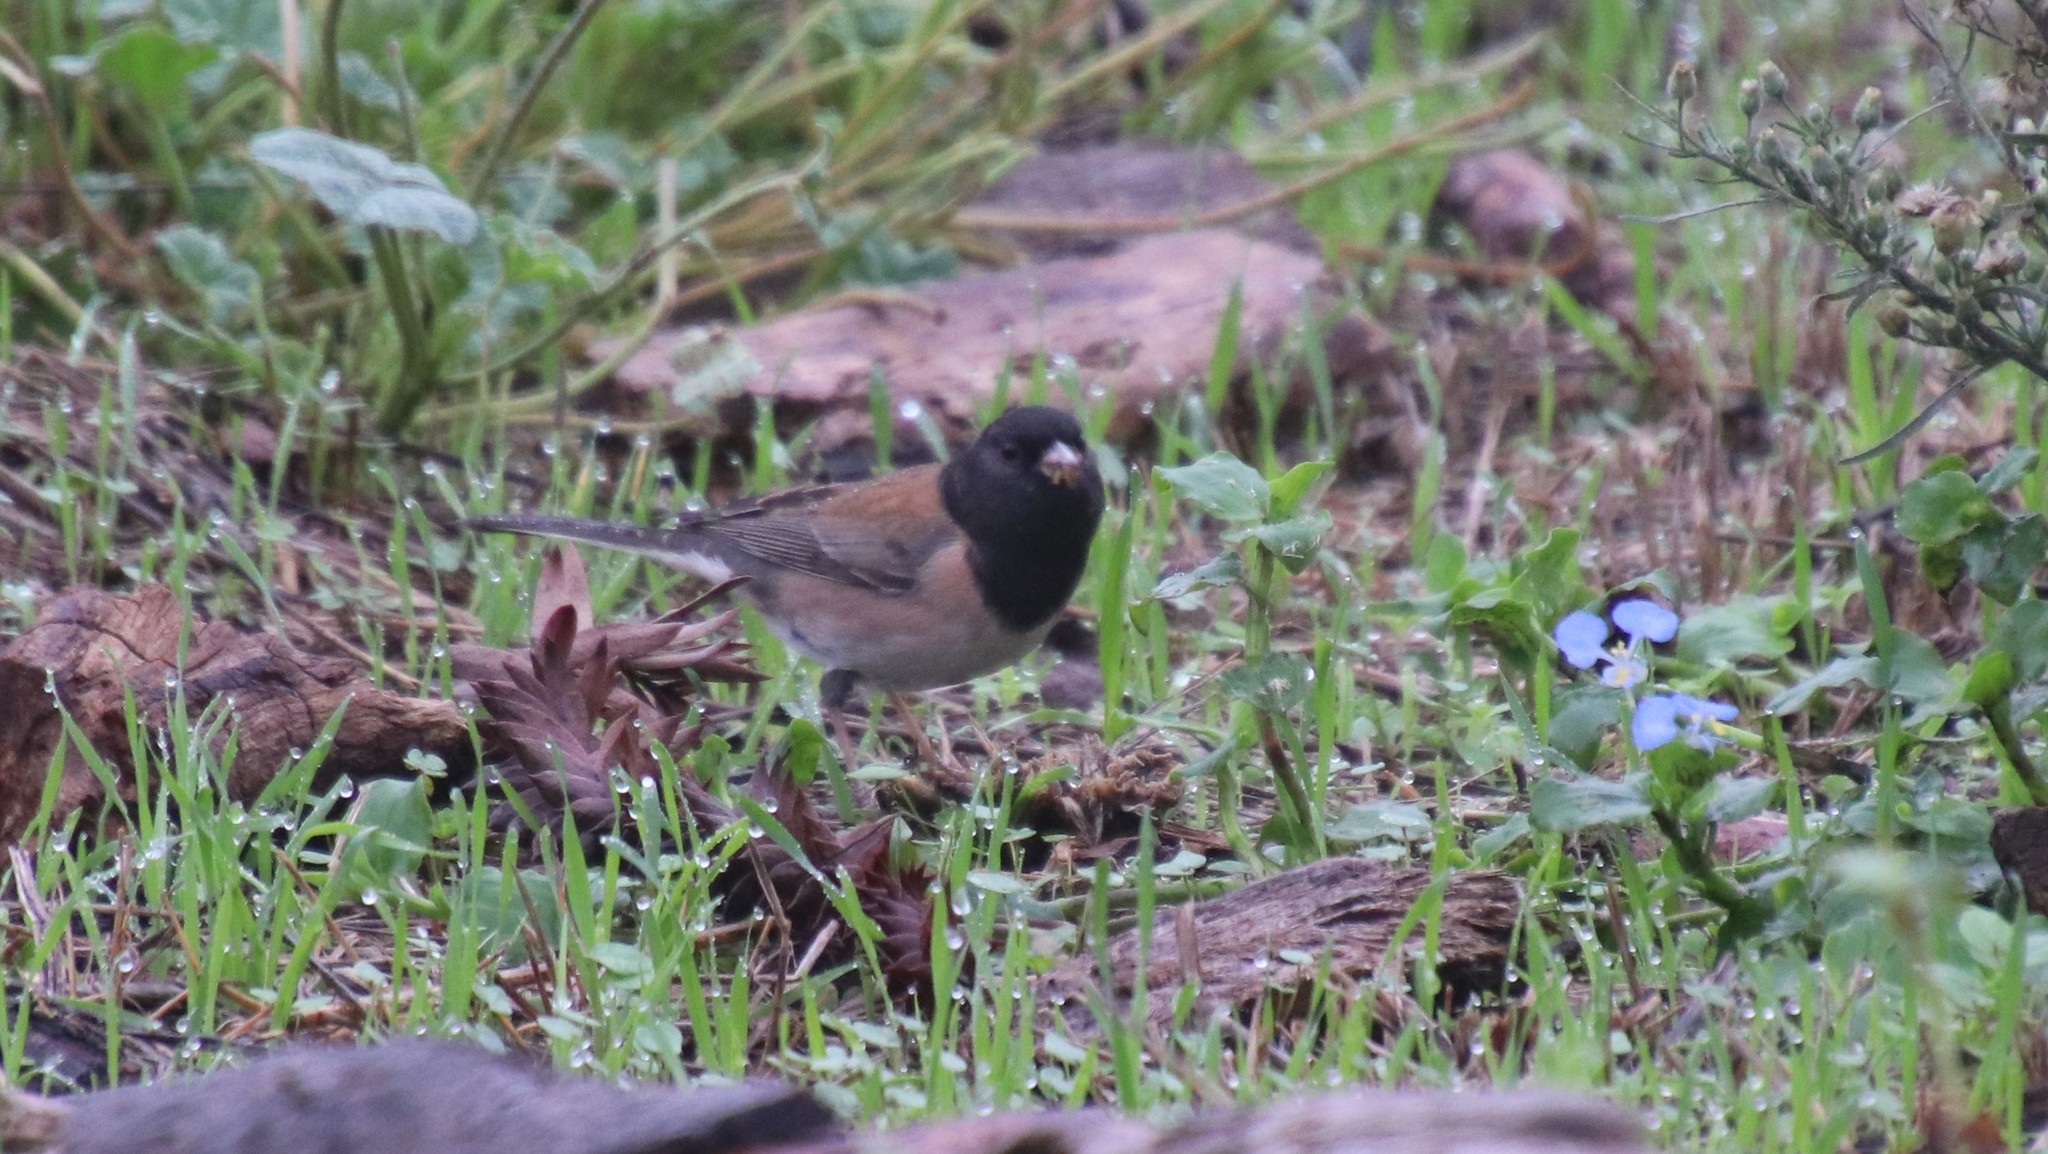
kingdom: Animalia
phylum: Chordata
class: Aves
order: Passeriformes
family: Passerellidae
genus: Junco
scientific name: Junco hyemalis
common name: Dark-eyed junco
